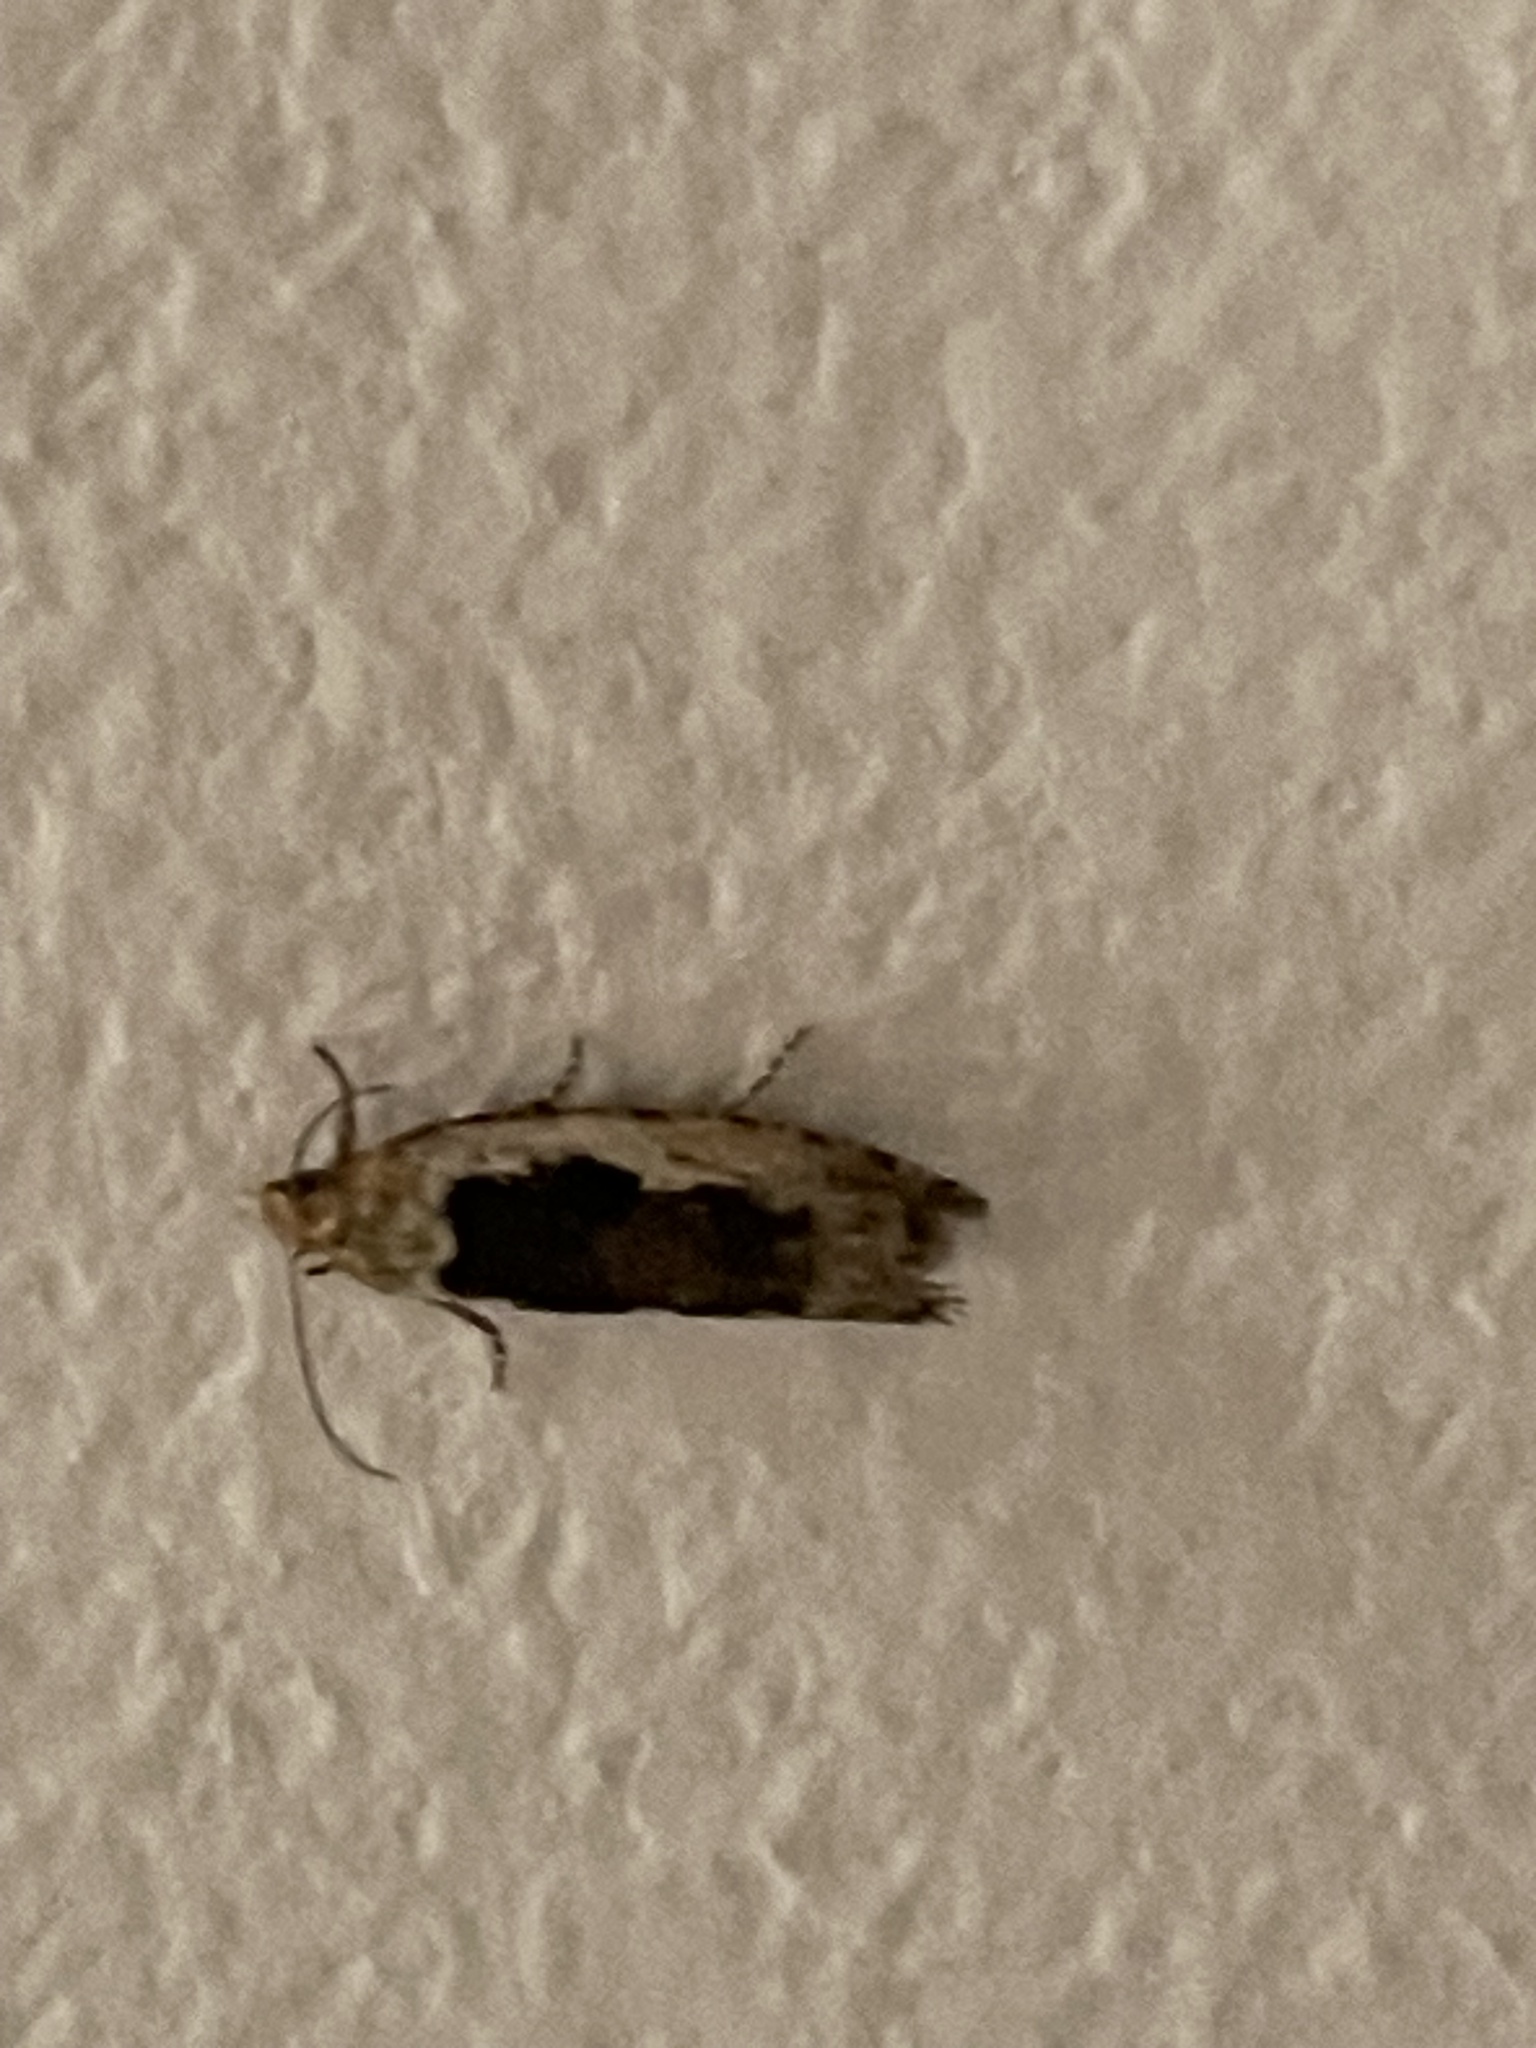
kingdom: Animalia
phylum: Arthropoda
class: Insecta
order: Lepidoptera
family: Tortricidae
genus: Epinotia
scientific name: Epinotia emarginana
